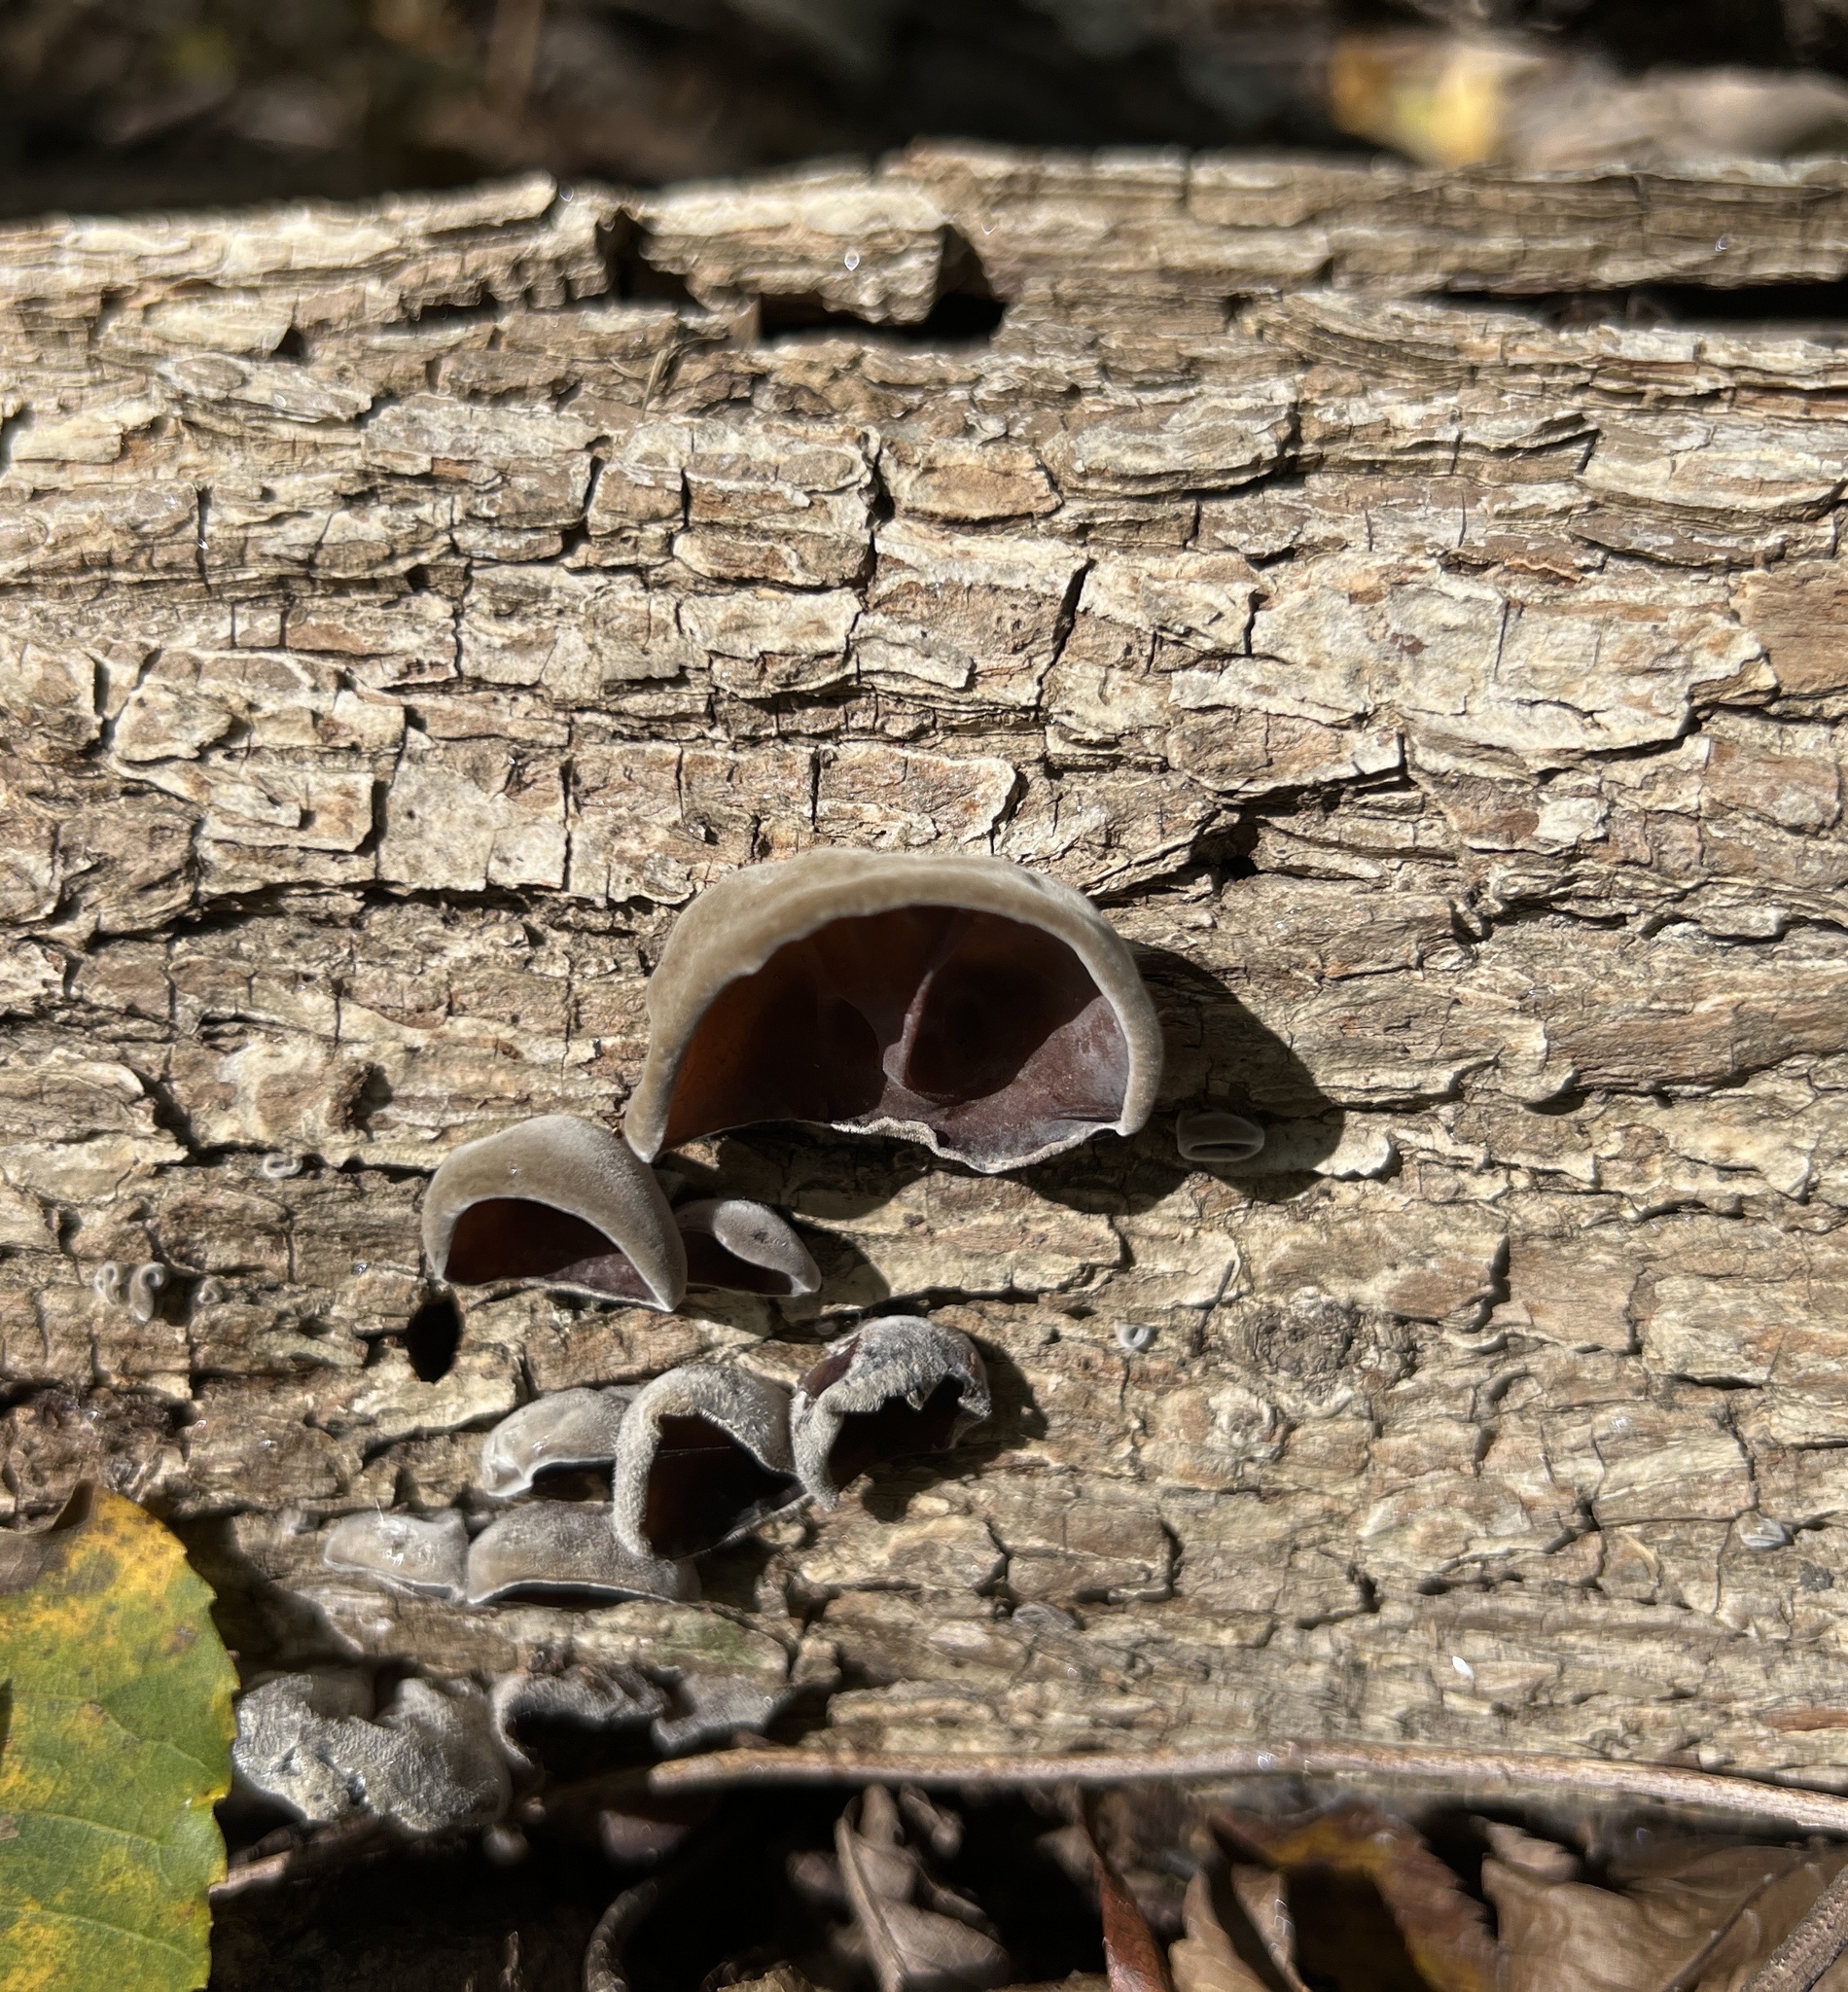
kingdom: Fungi
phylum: Basidiomycota
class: Agaricomycetes
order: Auriculariales
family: Auriculariaceae
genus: Auricularia
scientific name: Auricularia
